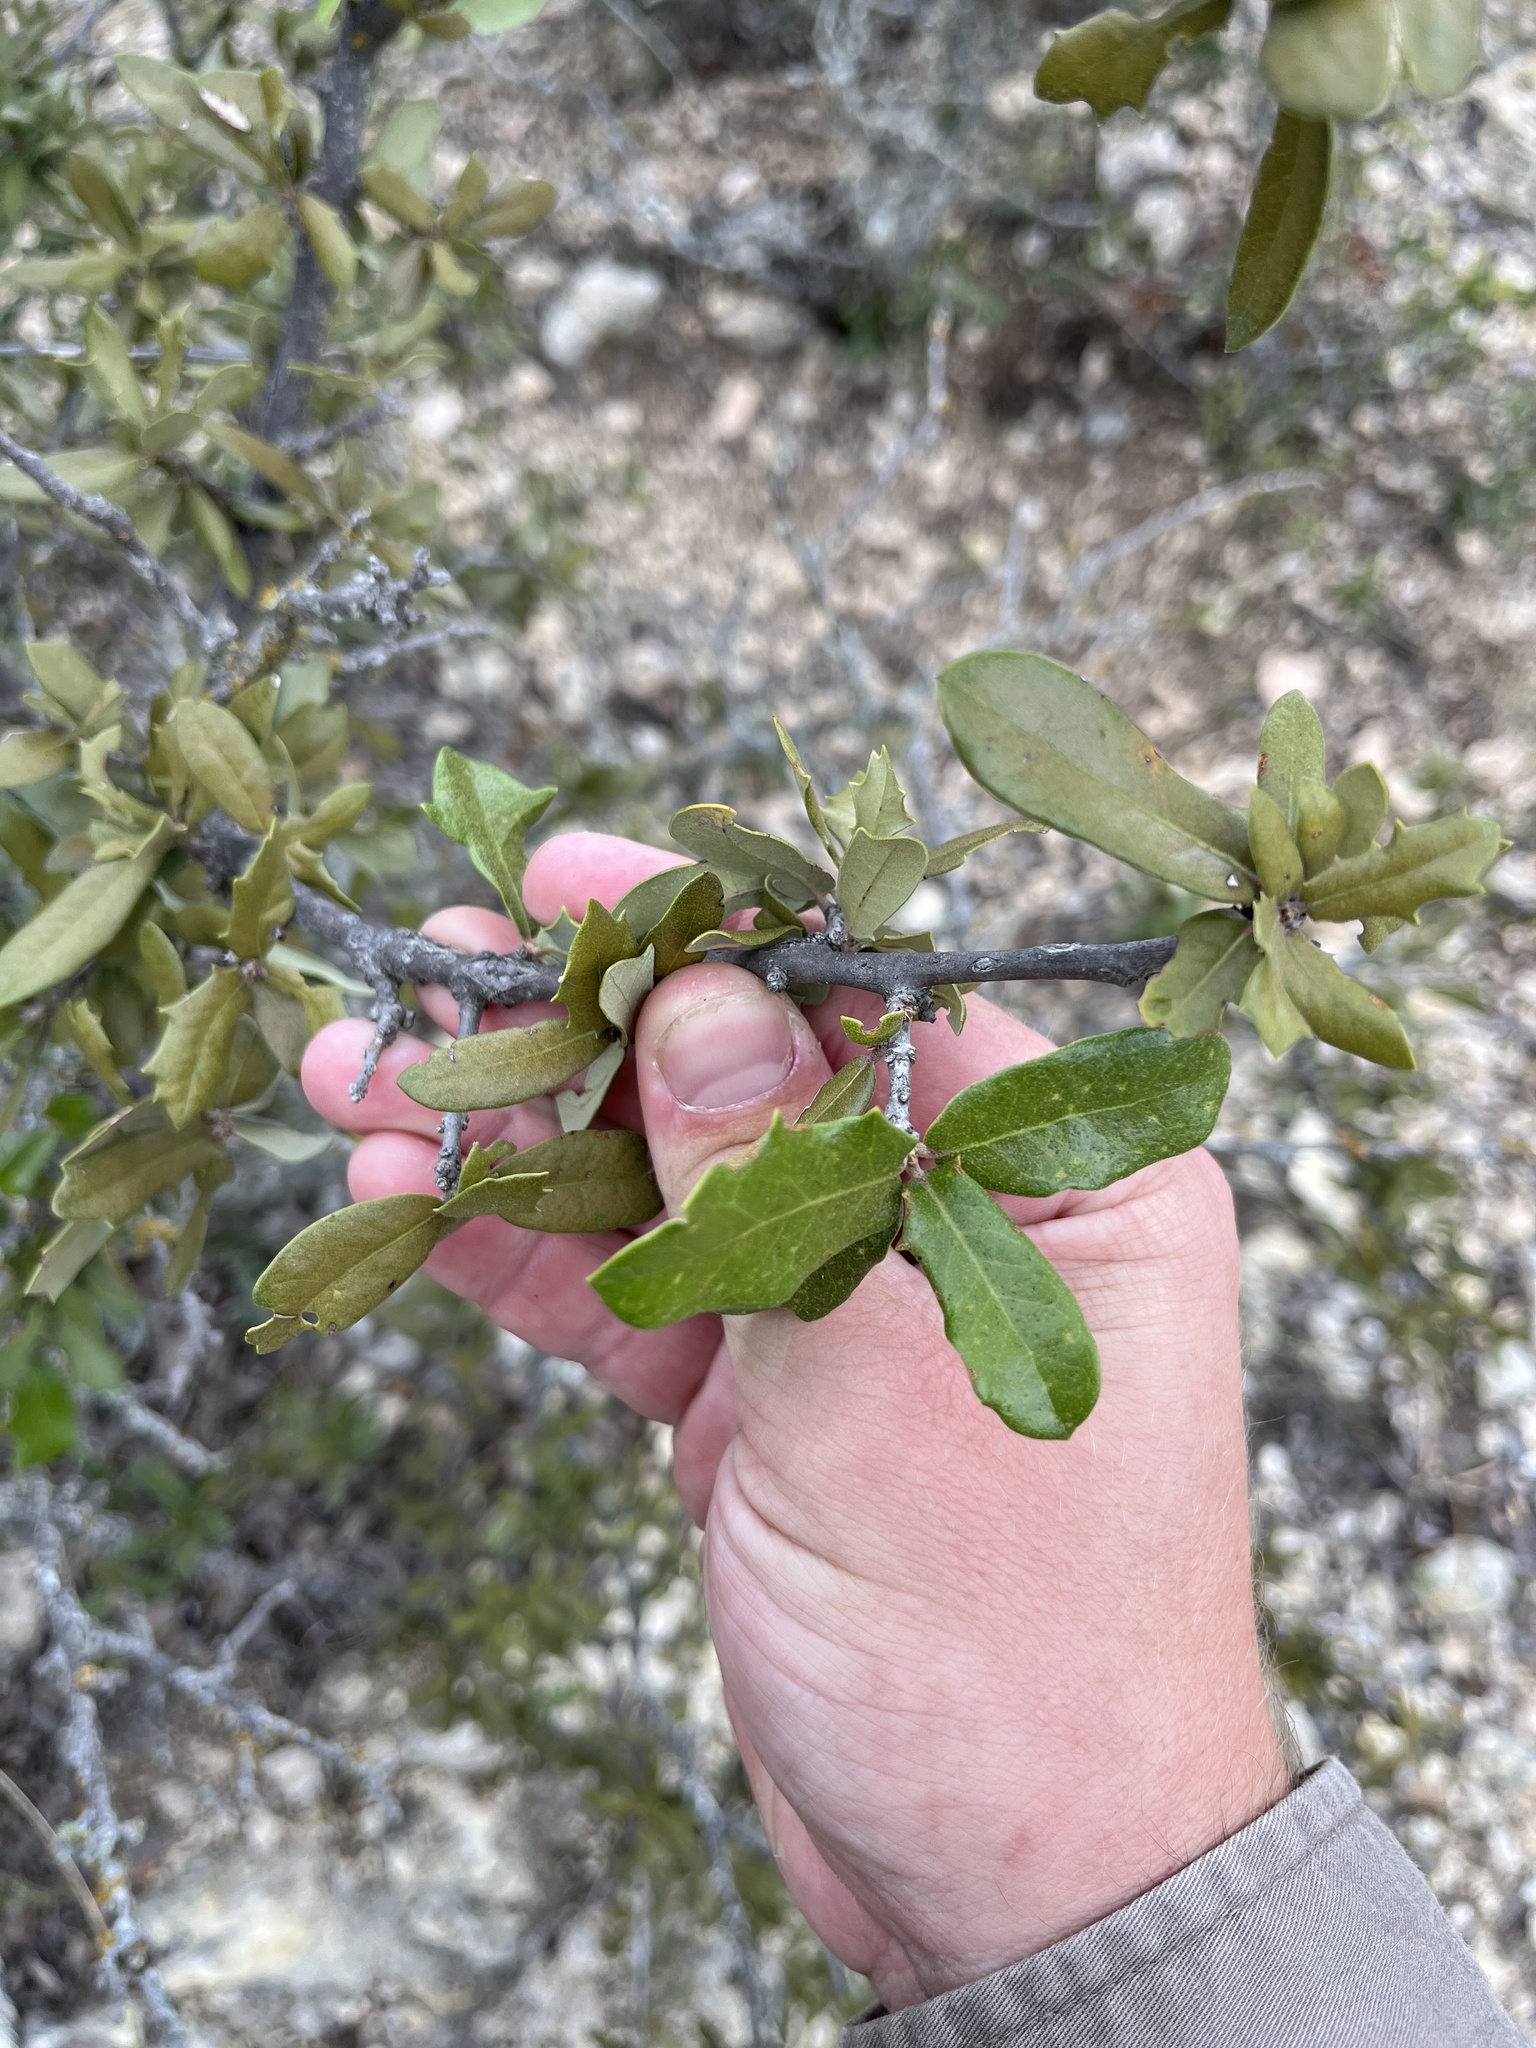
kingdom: Plantae
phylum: Tracheophyta
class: Magnoliopsida
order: Fagales
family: Fagaceae
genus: Quercus
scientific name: Quercus fusiformis
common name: Texas live oak
